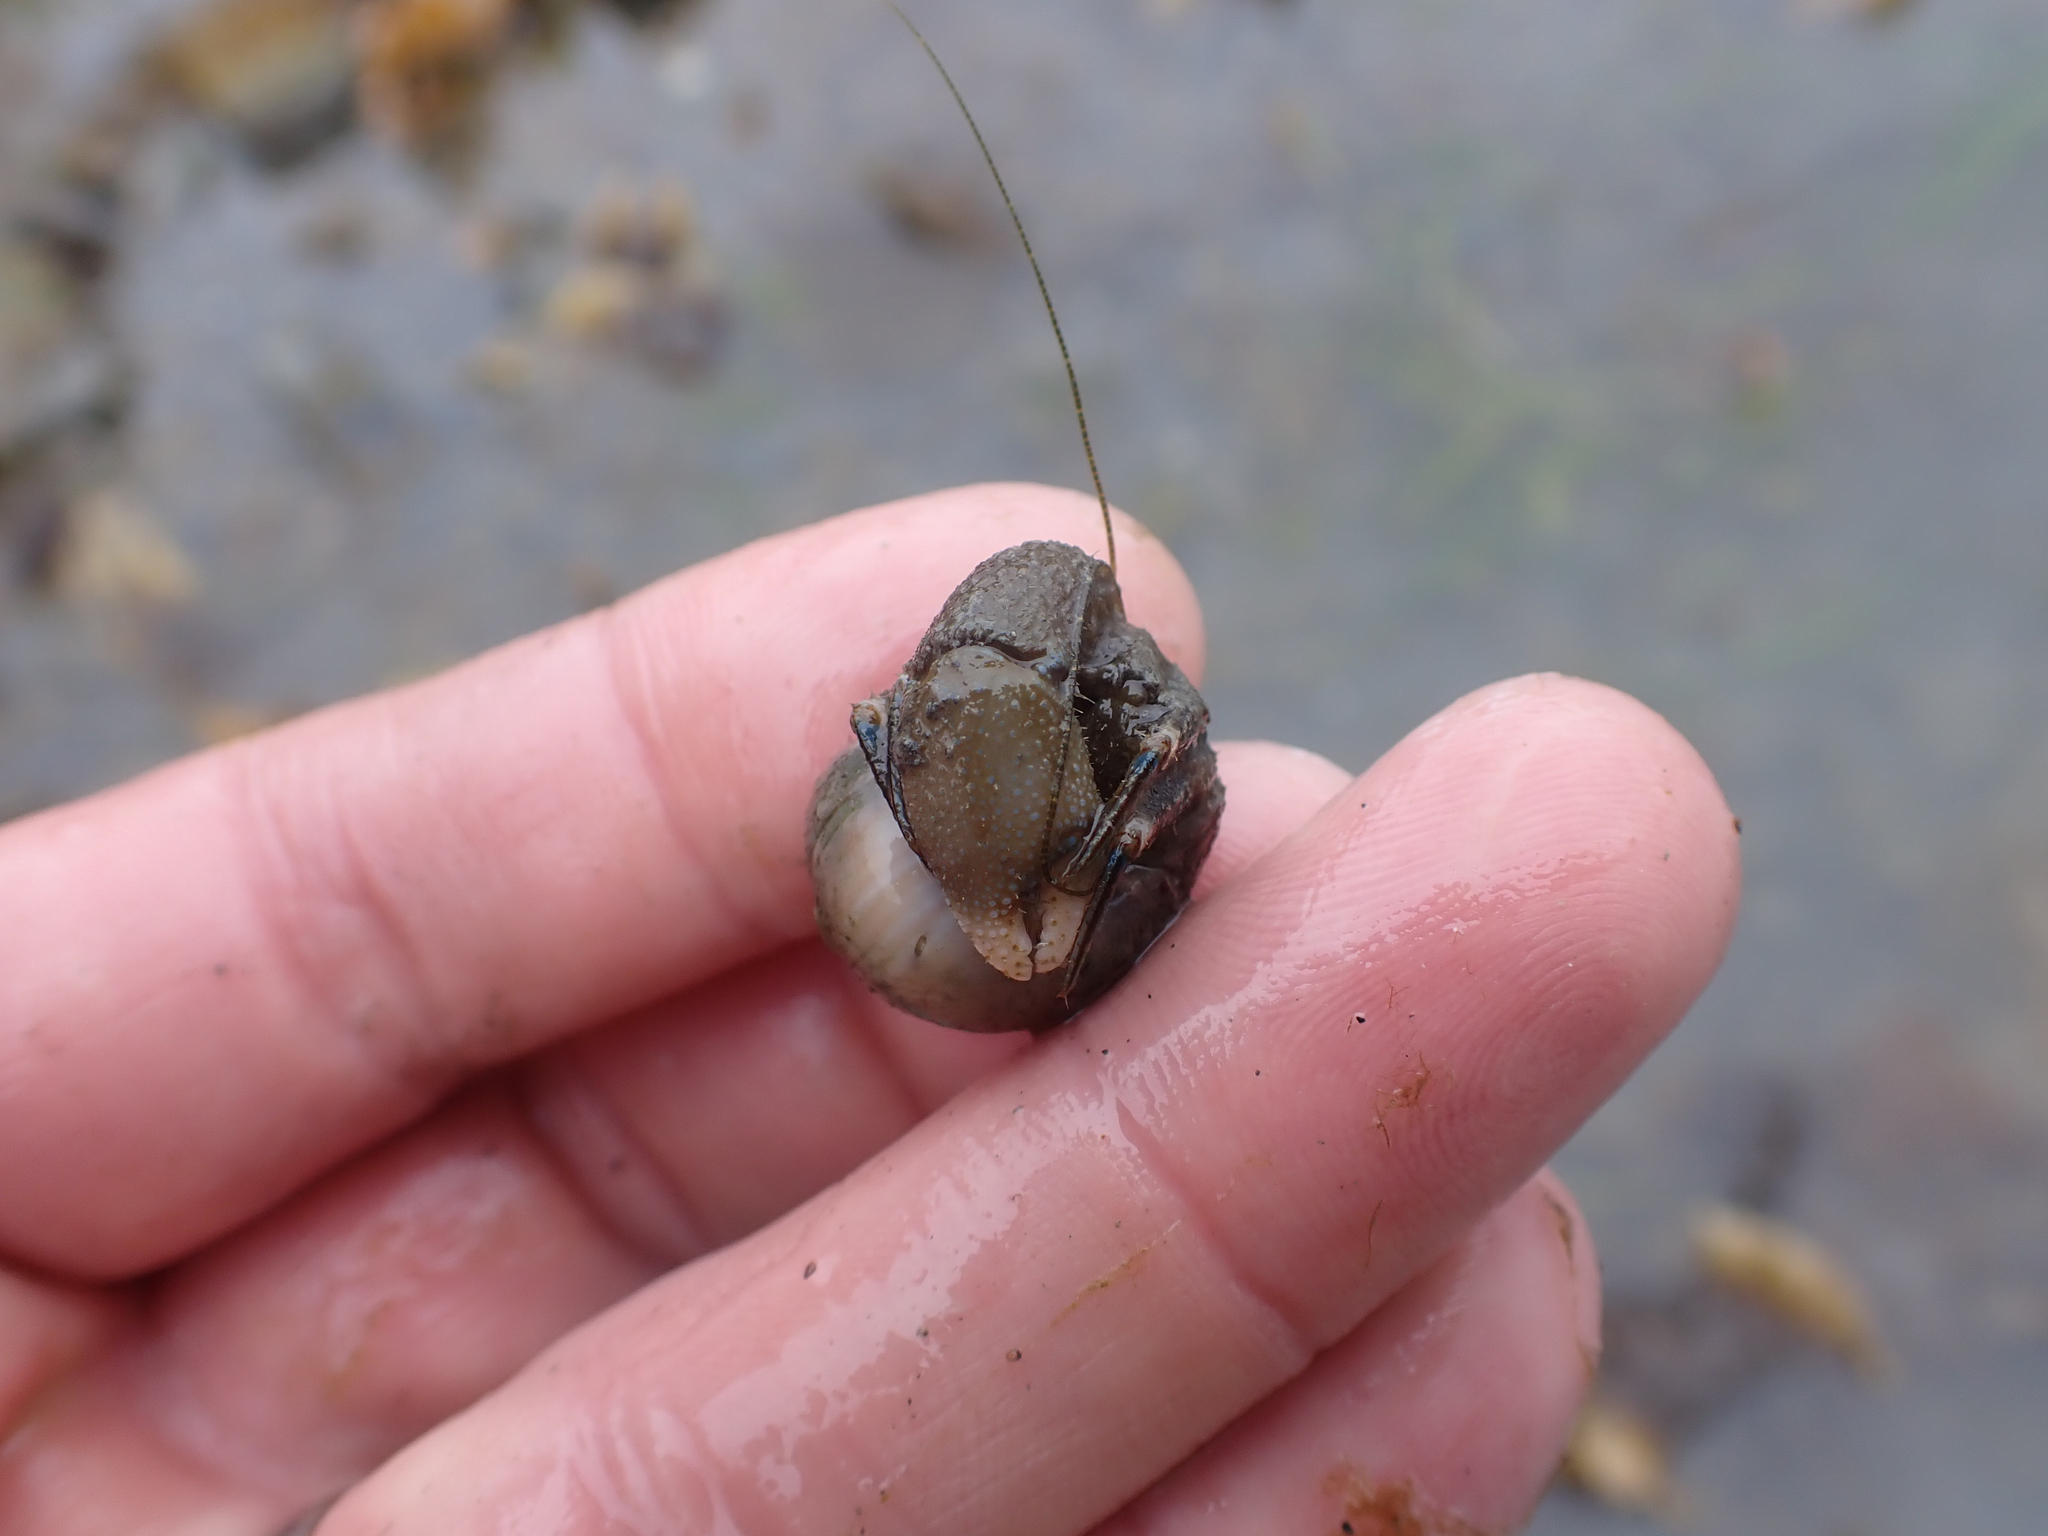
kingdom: Animalia
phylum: Arthropoda
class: Malacostraca
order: Decapoda
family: Paguridae
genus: Pagurus
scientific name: Pagurus hirsutiusculus
